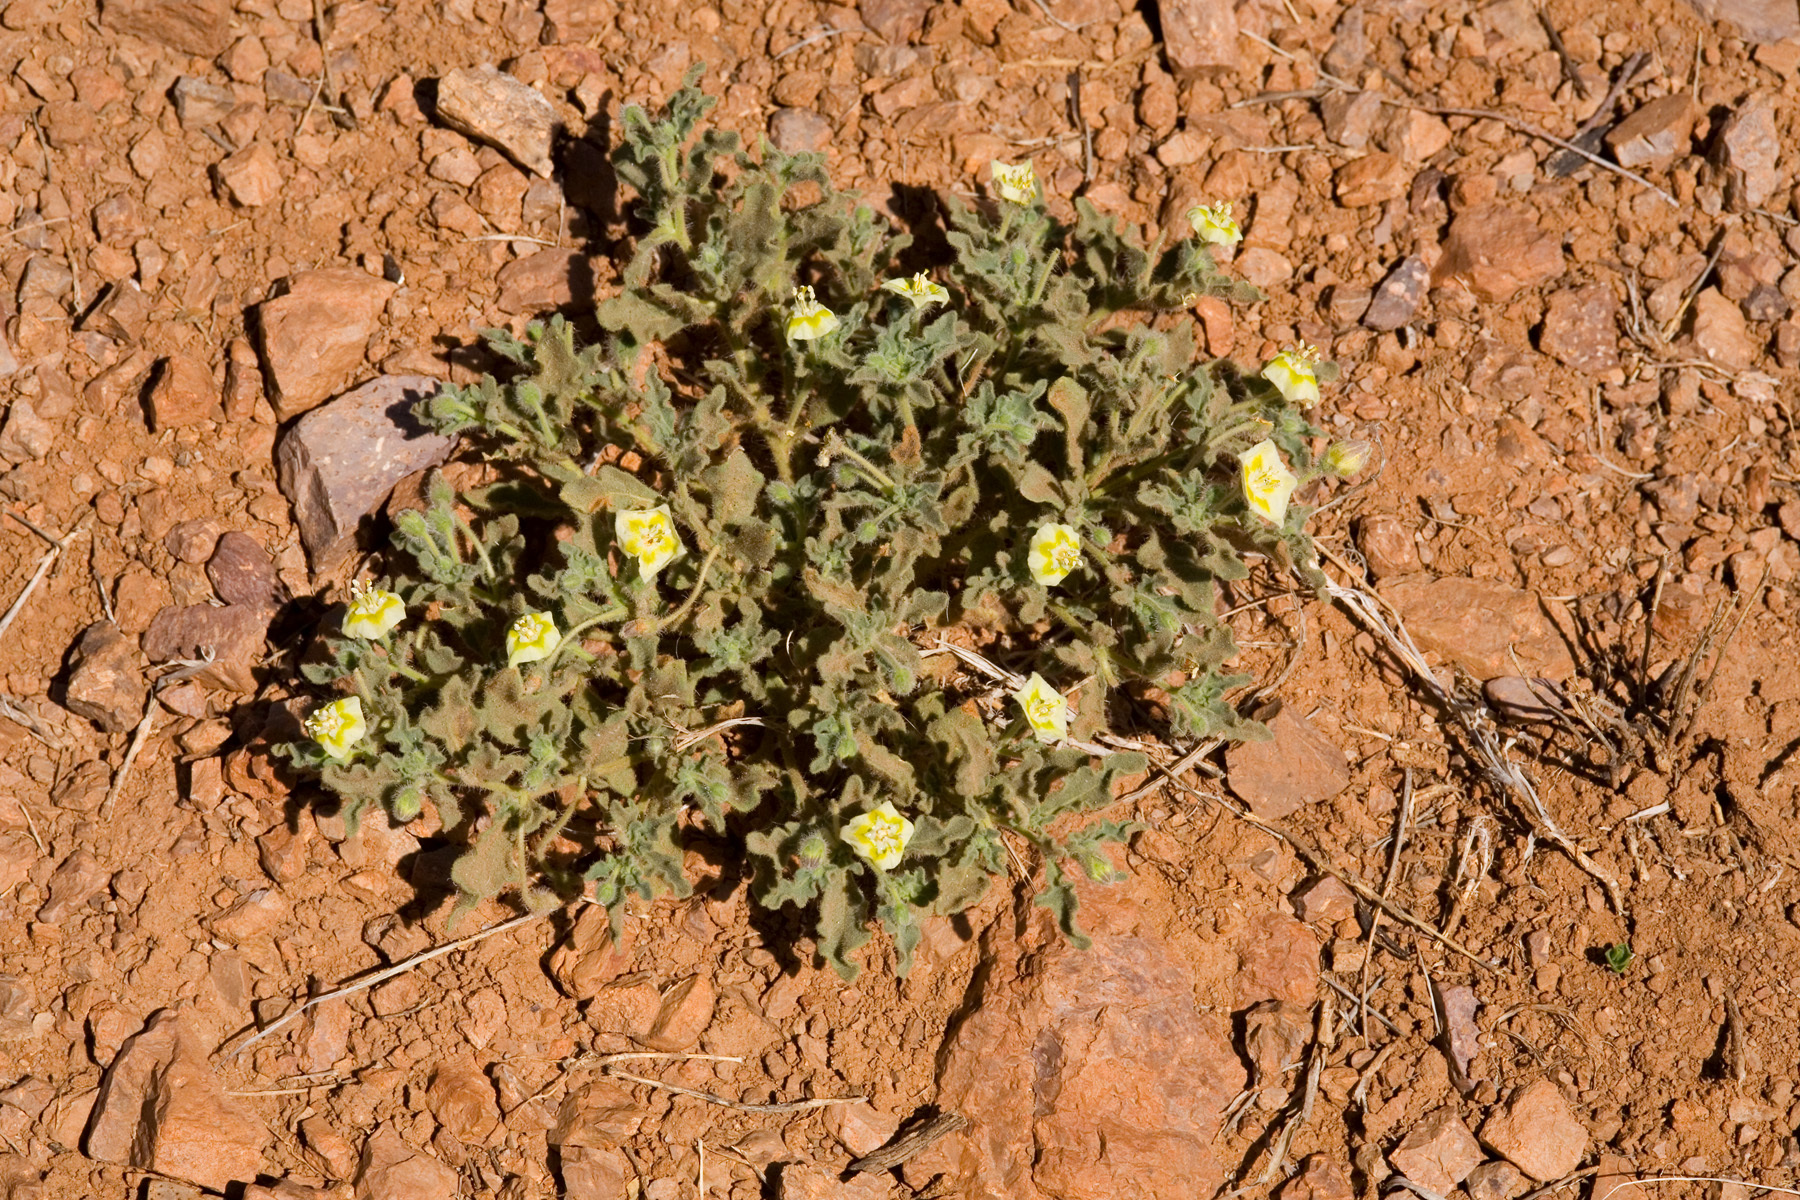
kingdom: Plantae
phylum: Tracheophyta
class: Magnoliopsida
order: Solanales
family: Solanaceae
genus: Chamaesaracha
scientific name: Chamaesaracha sordida
